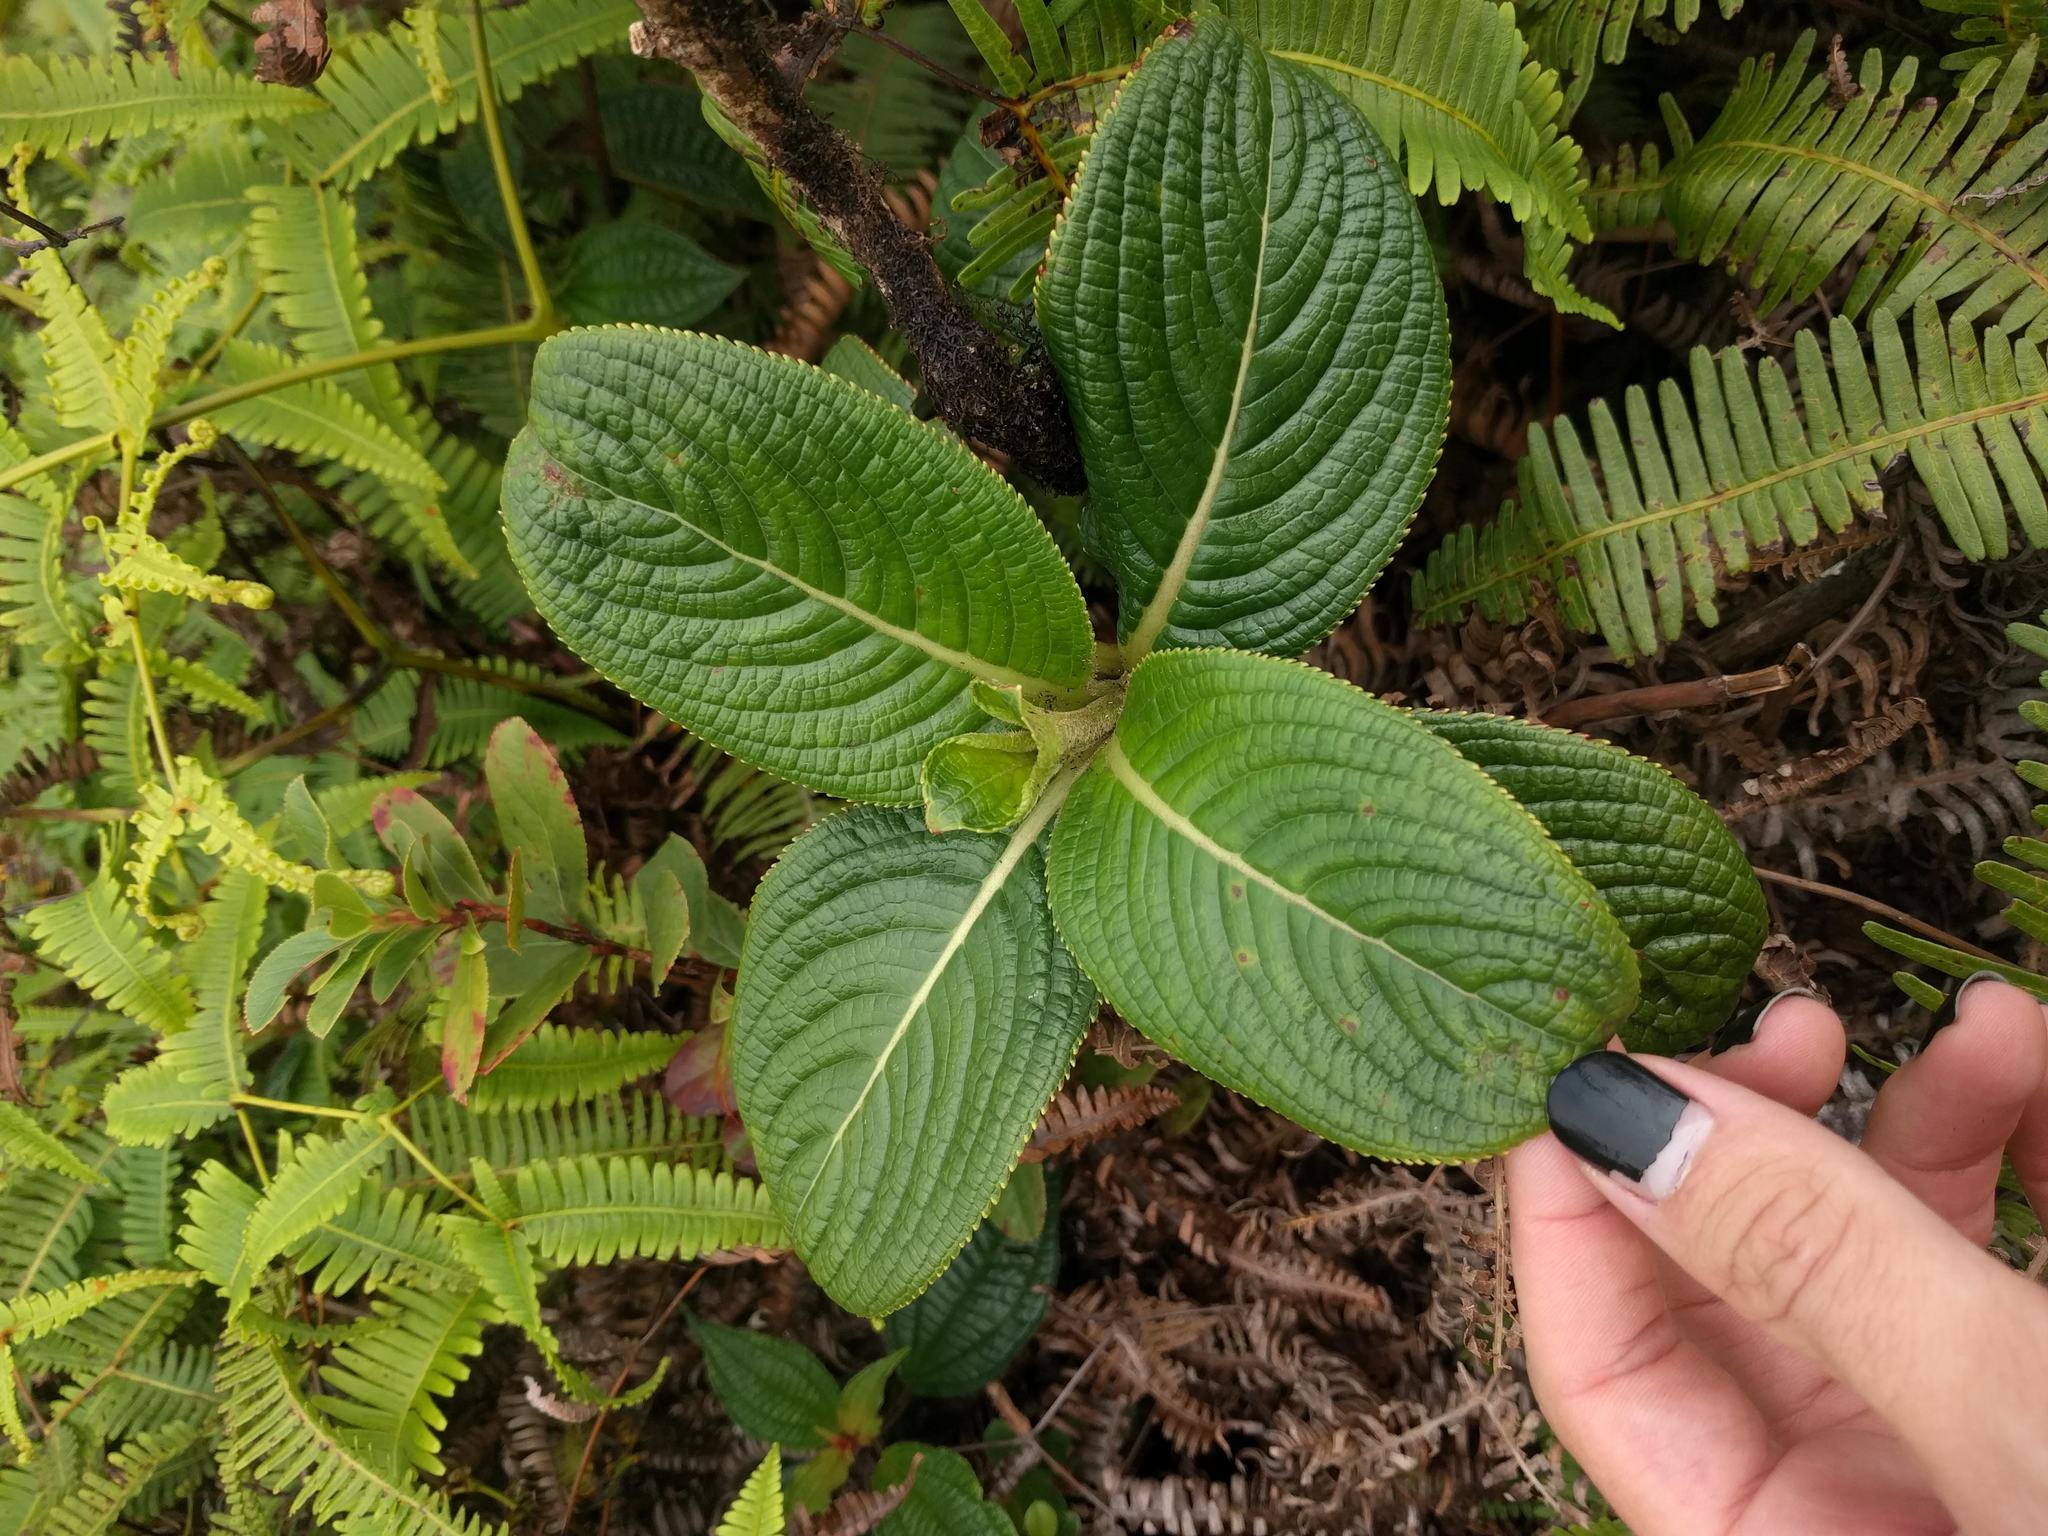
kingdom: Plantae
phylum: Tracheophyta
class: Magnoliopsida
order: Cornales
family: Hydrangeaceae
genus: Hydrangea
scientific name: Hydrangea arguta
